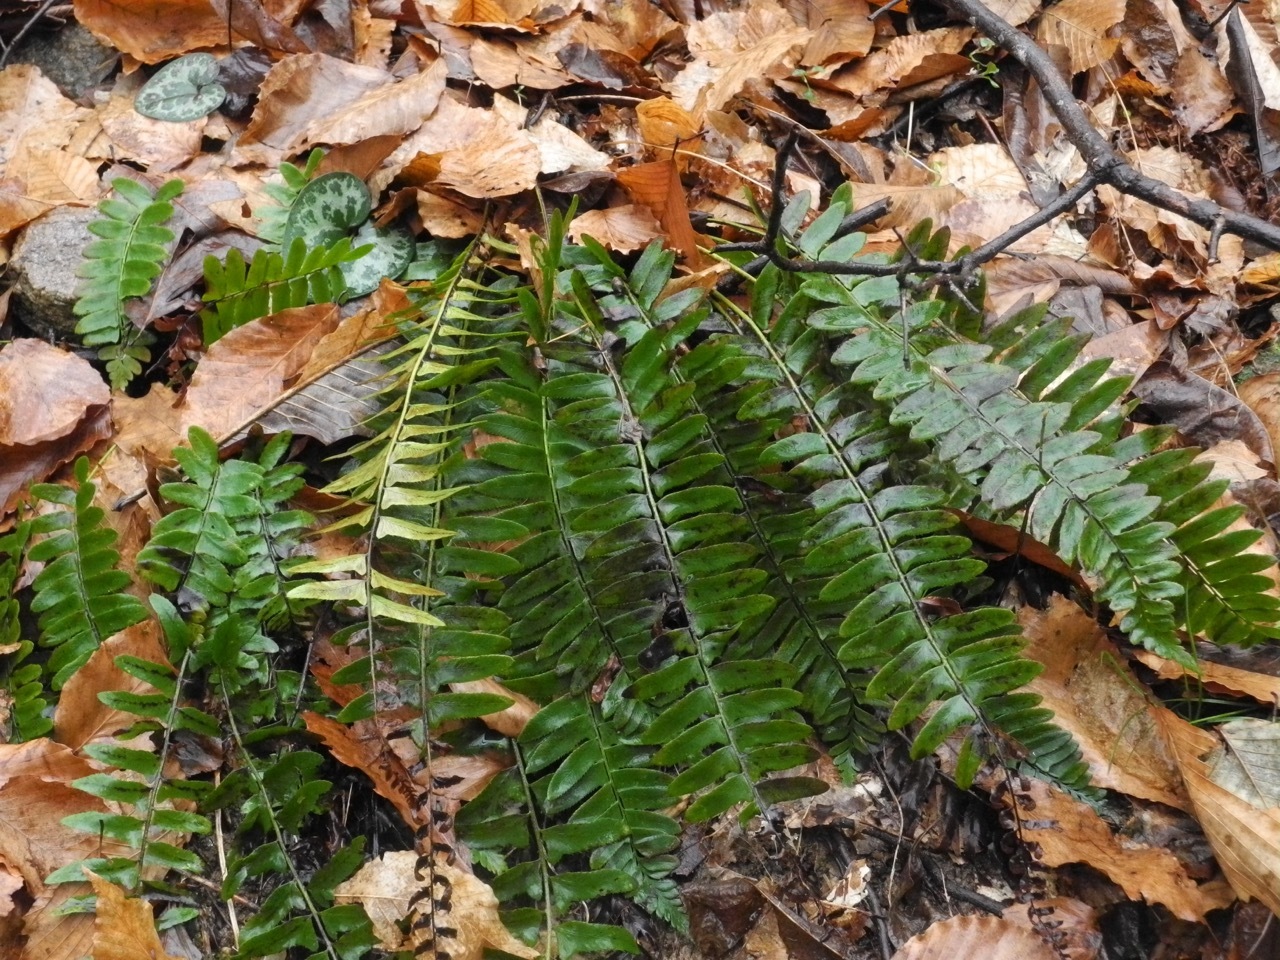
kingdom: Plantae
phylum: Tracheophyta
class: Polypodiopsida
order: Polypodiales
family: Dryopteridaceae
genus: Polystichum
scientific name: Polystichum acrostichoides
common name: Christmas fern
